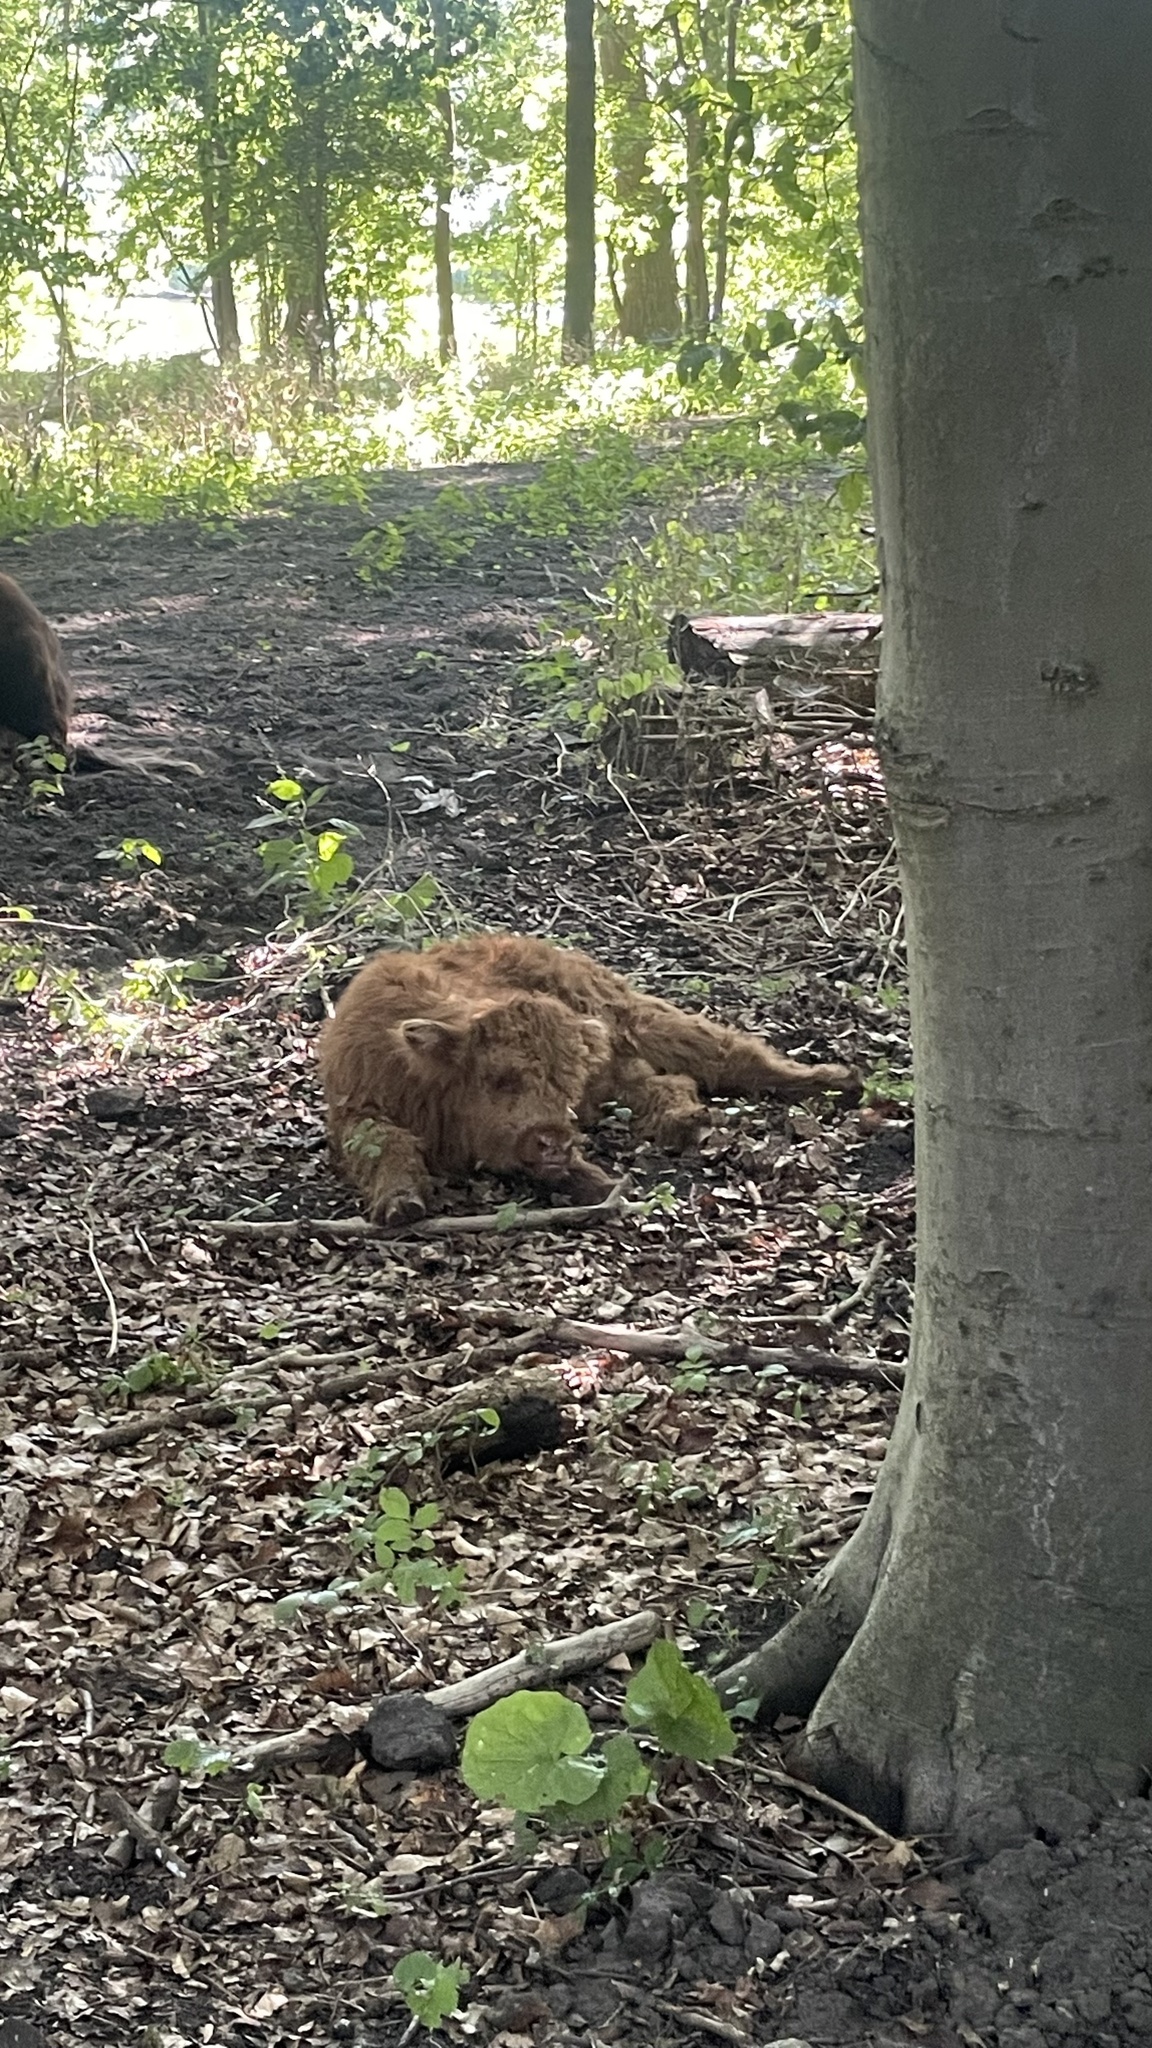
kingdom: Animalia
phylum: Chordata
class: Mammalia
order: Artiodactyla
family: Bovidae
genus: Bos
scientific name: Bos taurus
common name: Domesticated cattle
